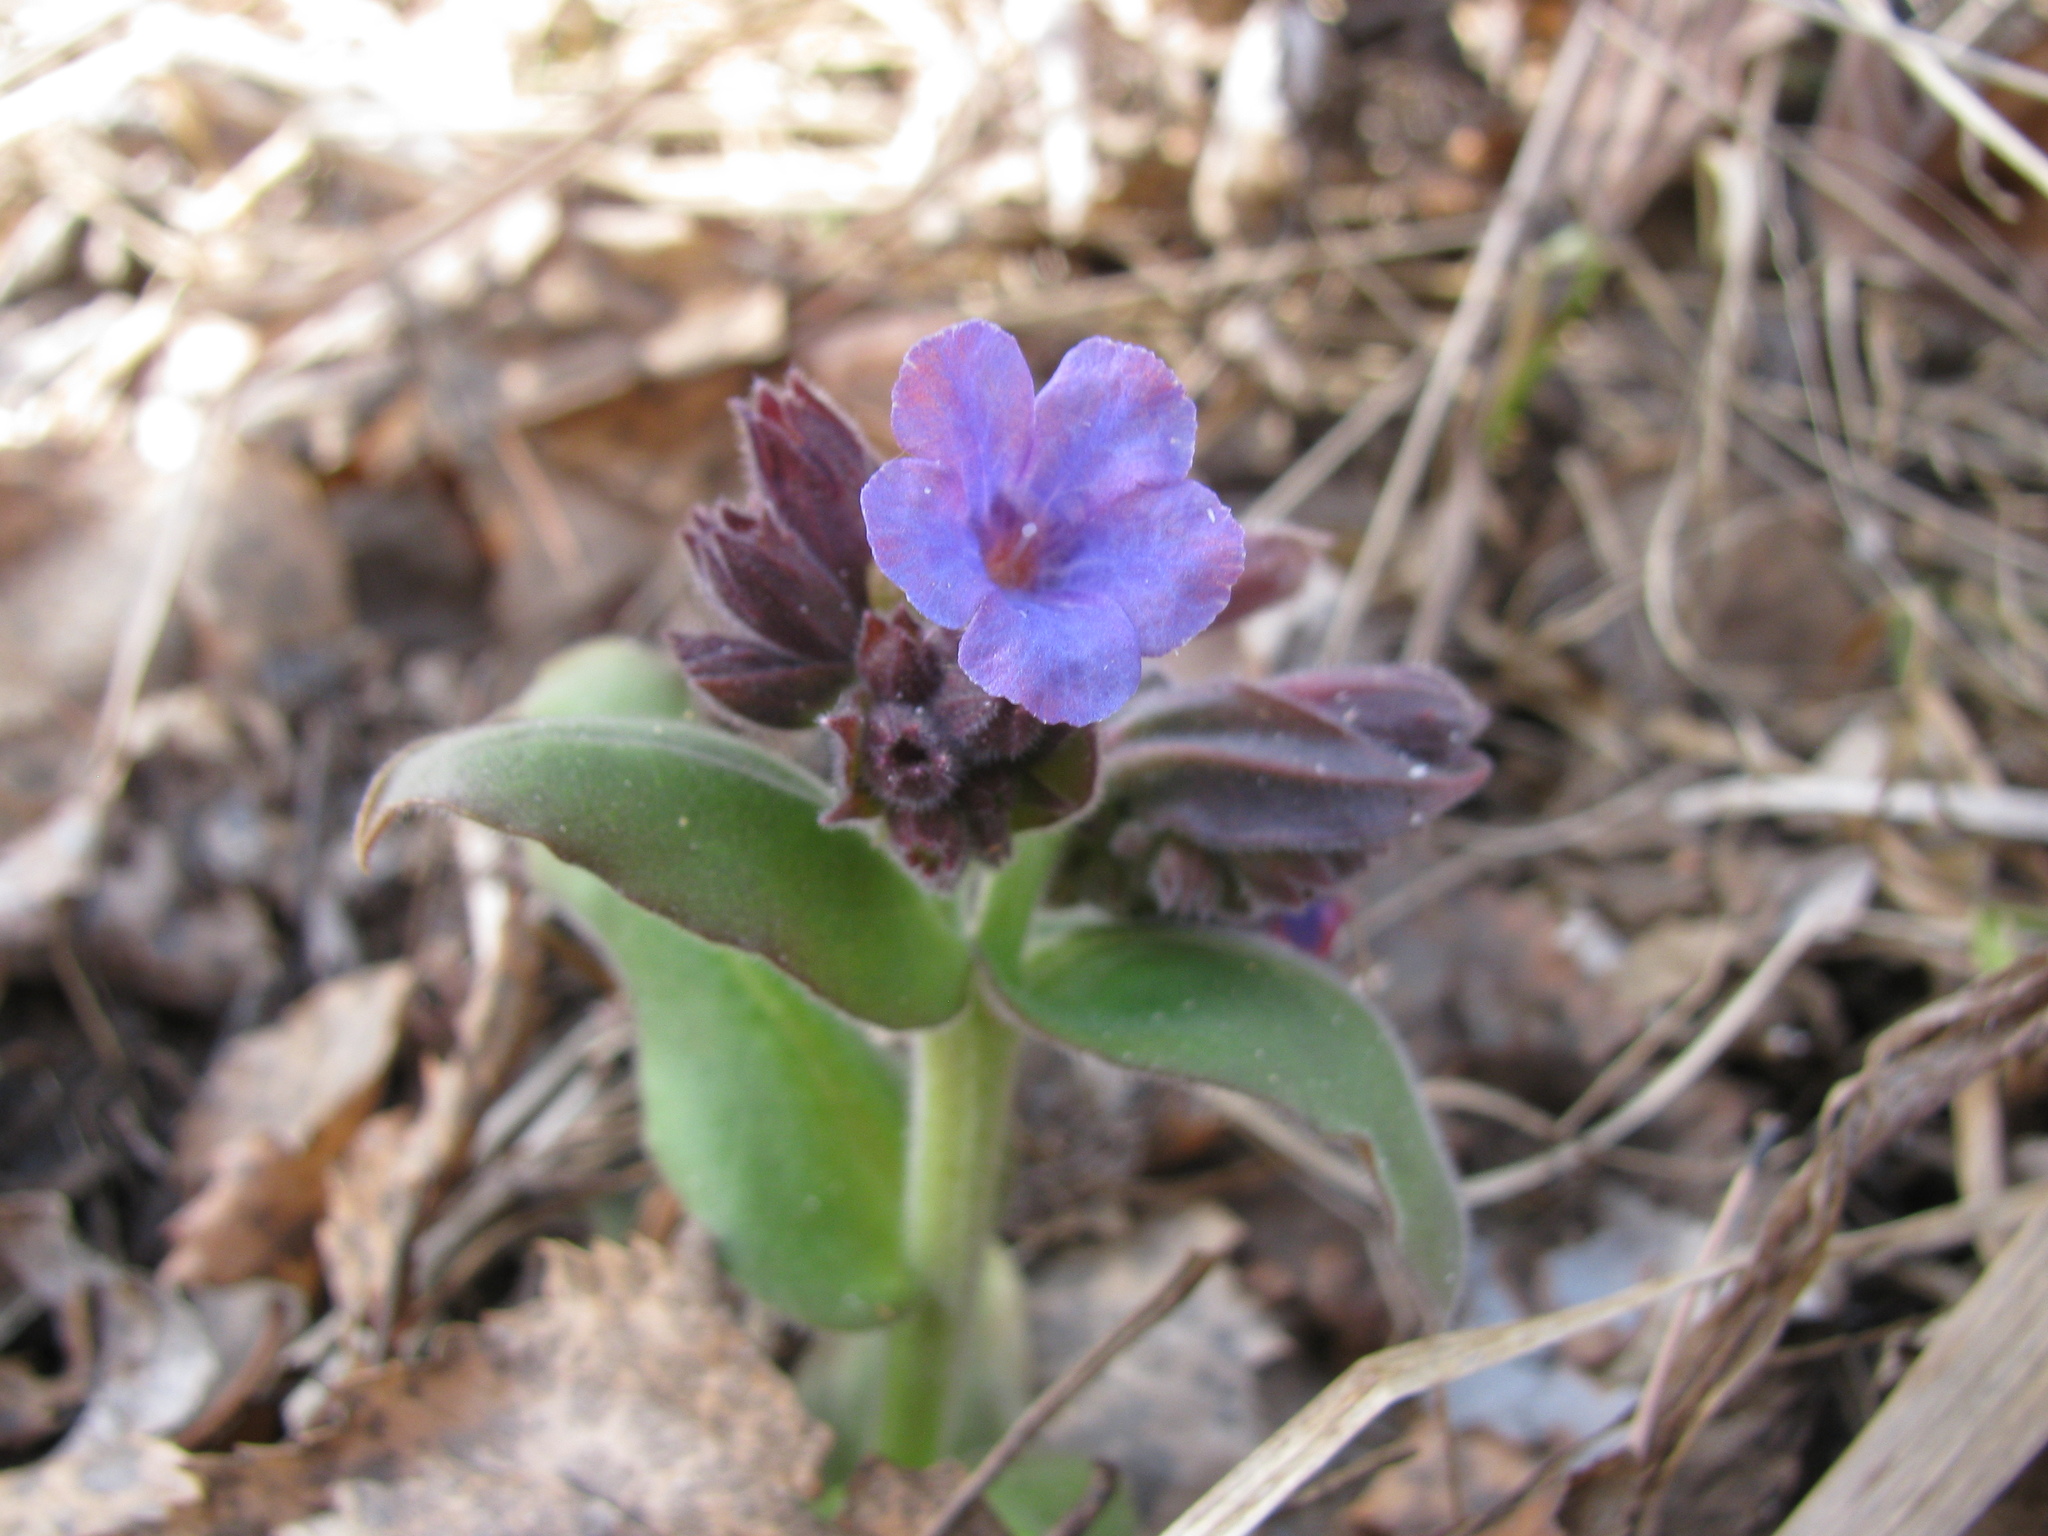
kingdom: Plantae
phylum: Tracheophyta
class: Magnoliopsida
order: Boraginales
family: Boraginaceae
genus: Pulmonaria
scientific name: Pulmonaria mollis
